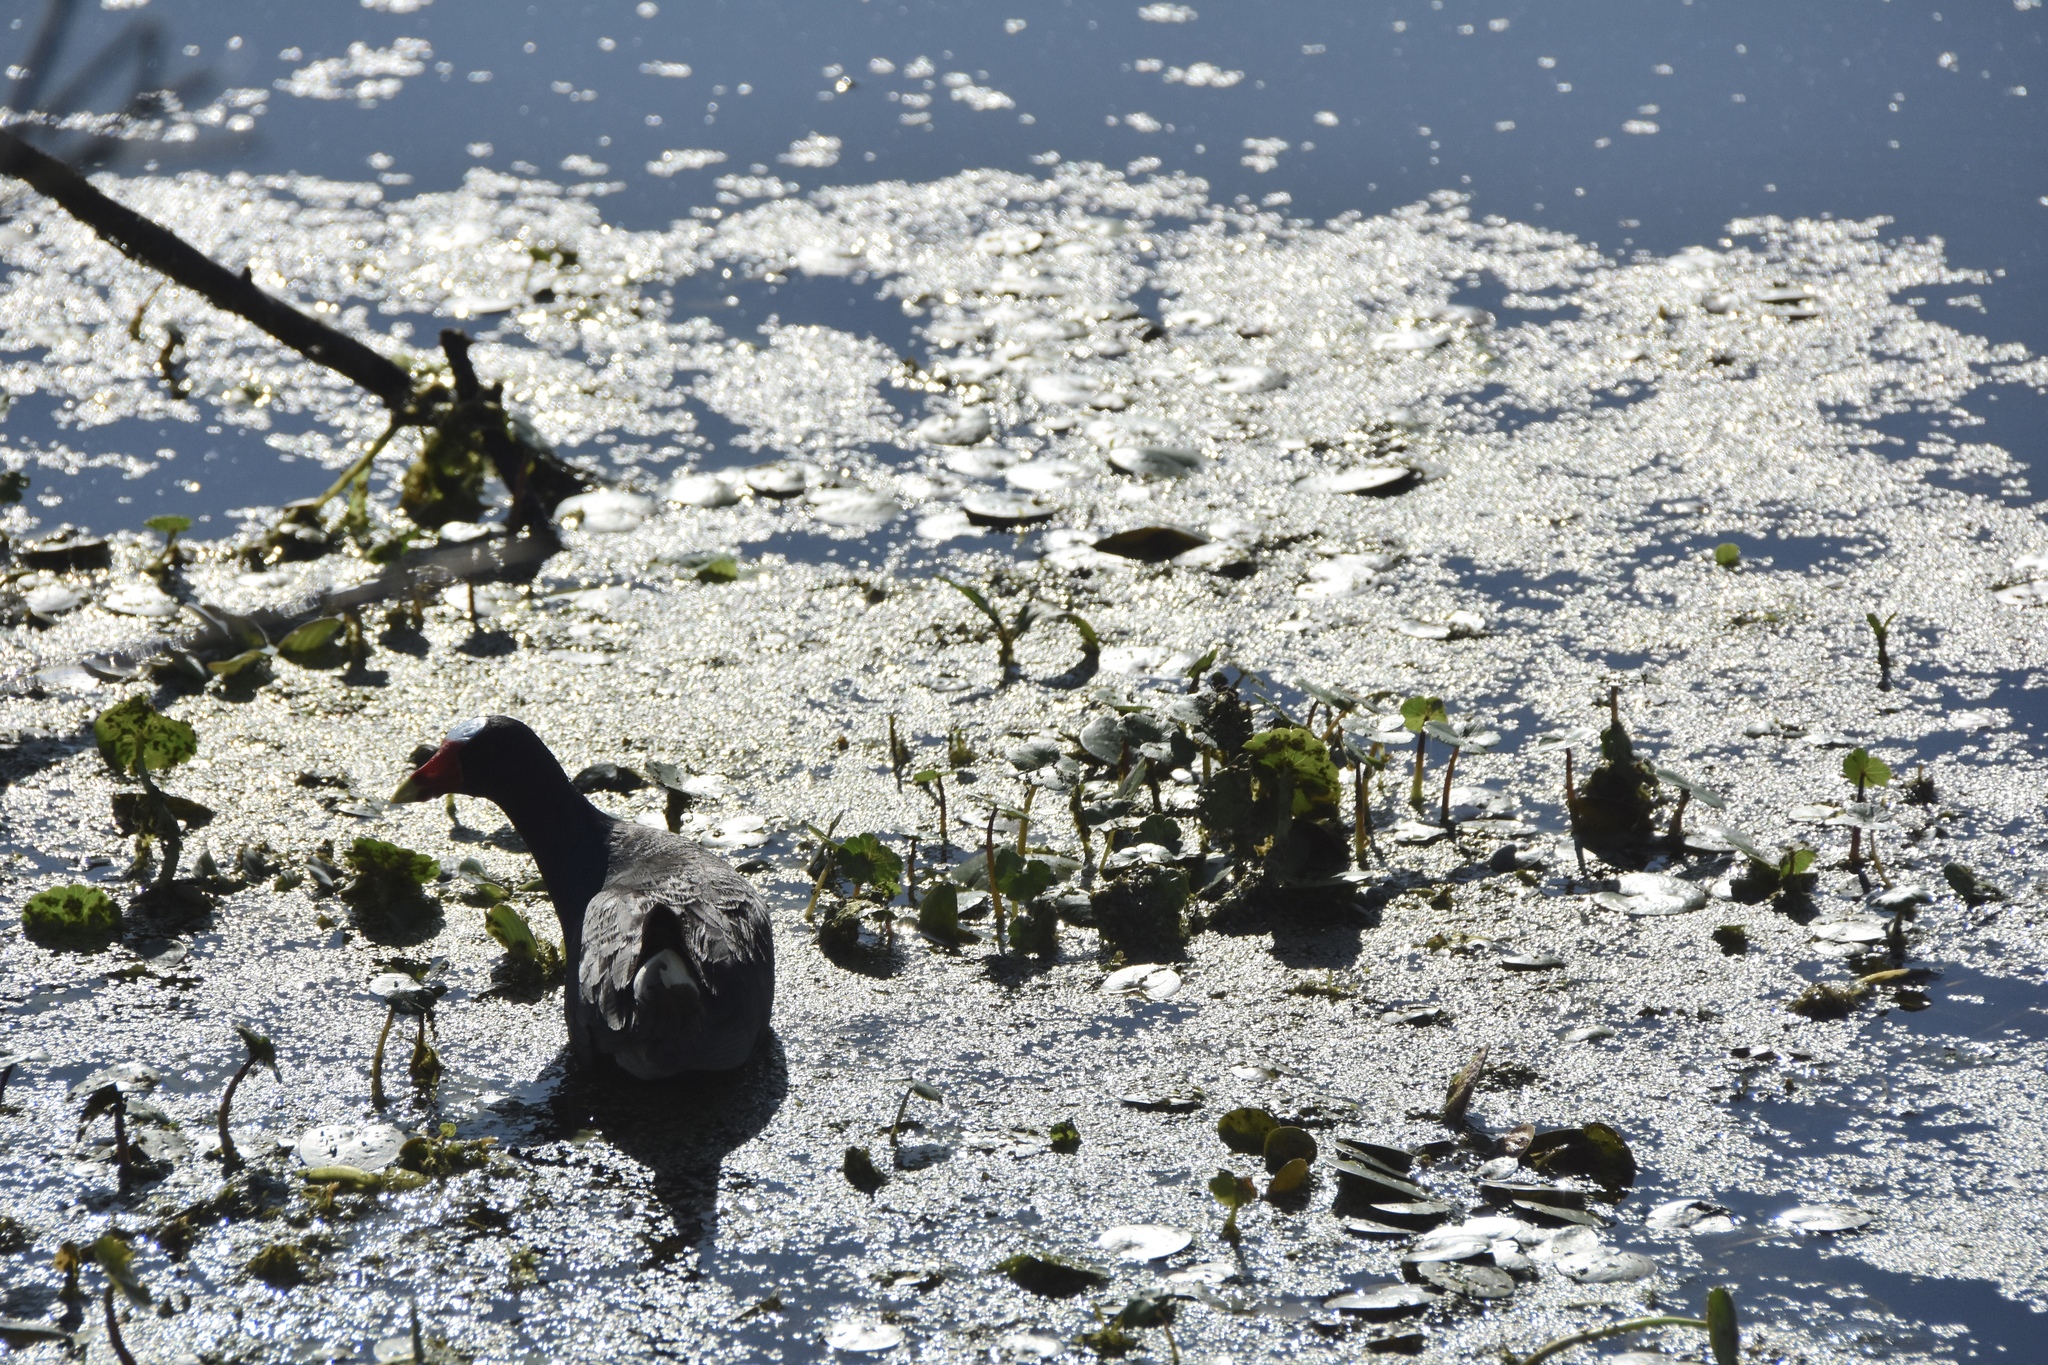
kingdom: Animalia
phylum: Chordata
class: Aves
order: Gruiformes
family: Rallidae
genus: Porphyrio
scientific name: Porphyrio martinica
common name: Purple gallinule
